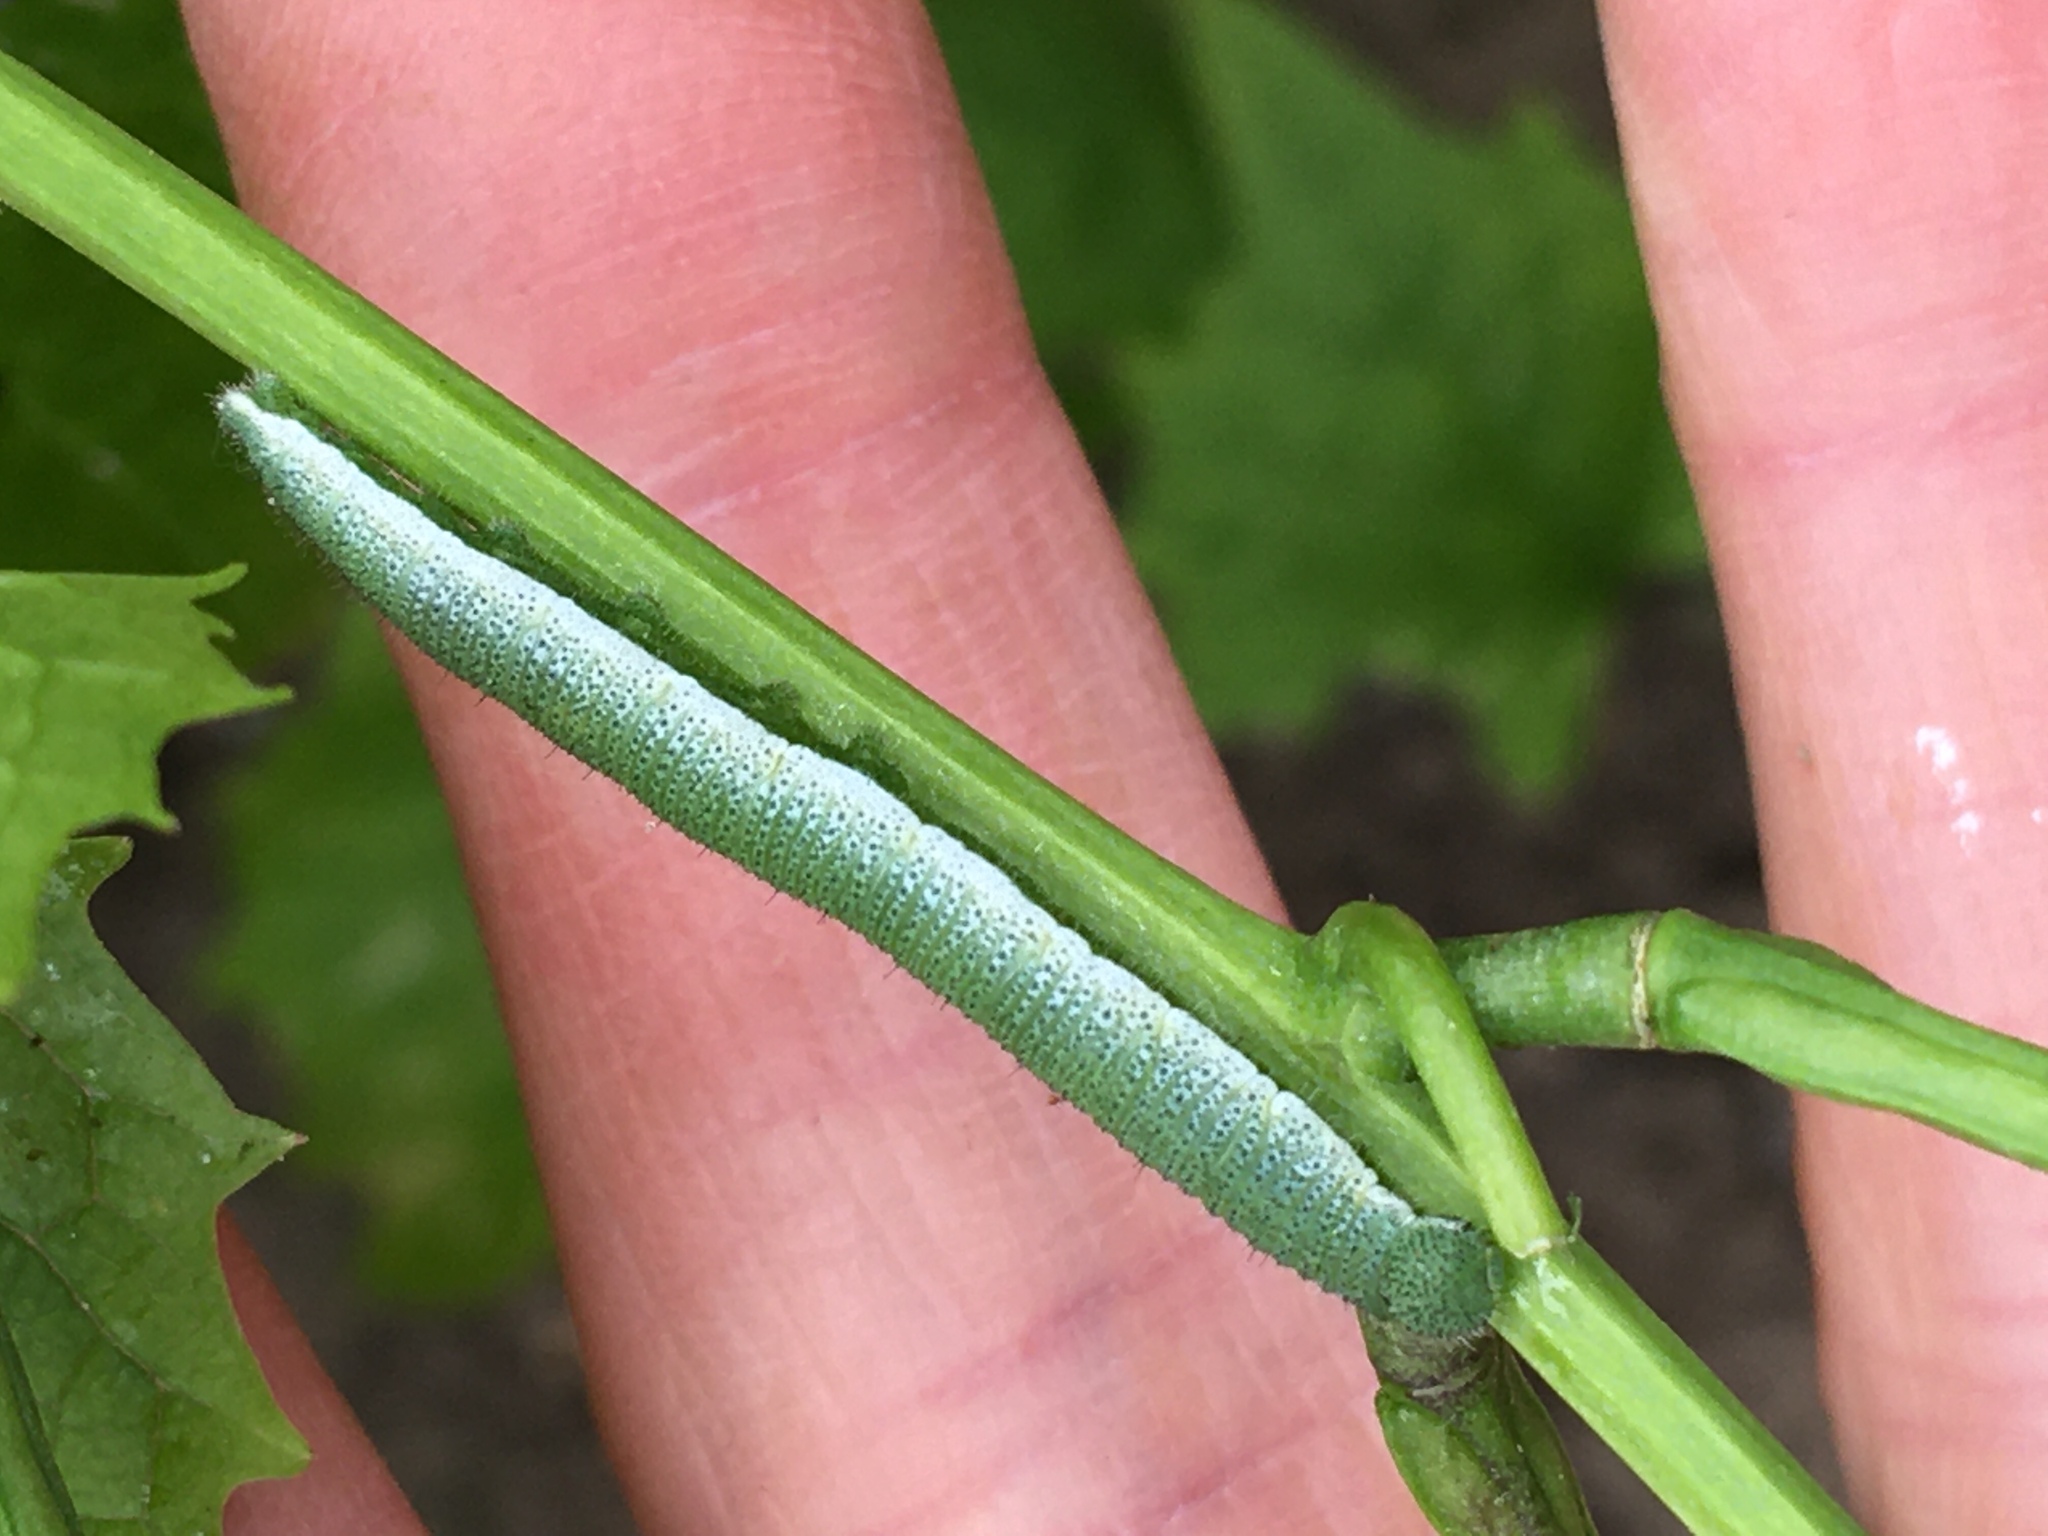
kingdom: Animalia
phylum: Arthropoda
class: Insecta
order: Lepidoptera
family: Pieridae
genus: Anthocharis
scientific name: Anthocharis cardamines
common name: Orange-tip
